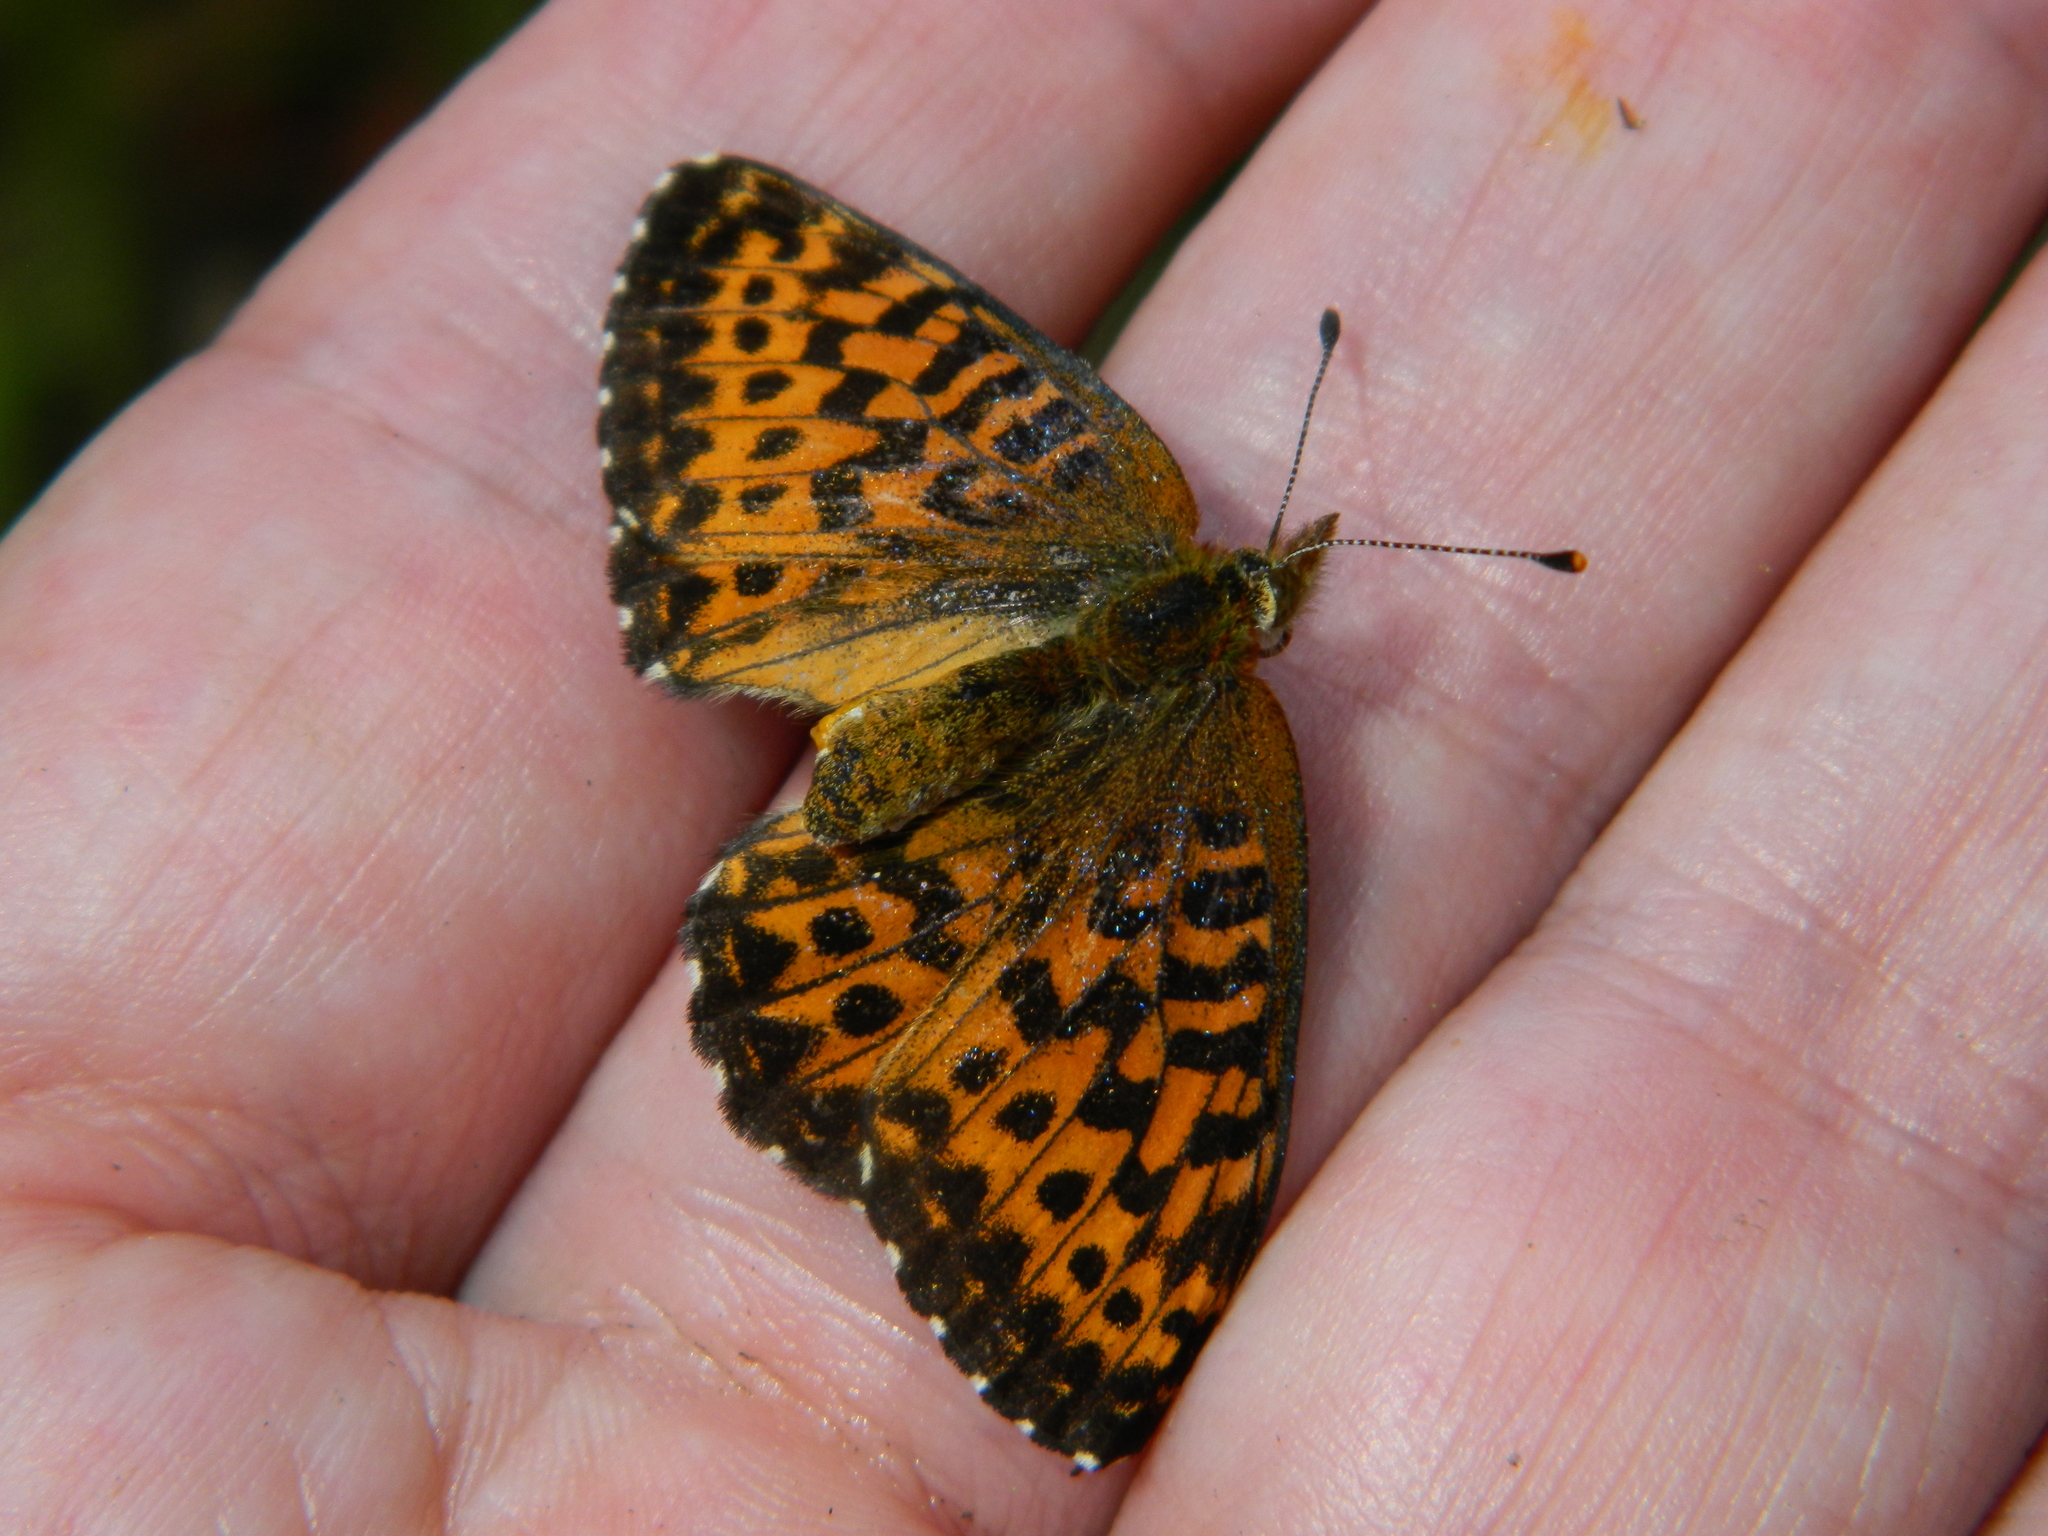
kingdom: Animalia
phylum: Arthropoda
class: Insecta
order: Lepidoptera
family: Nymphalidae
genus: Clossiana
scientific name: Clossiana chariclea
